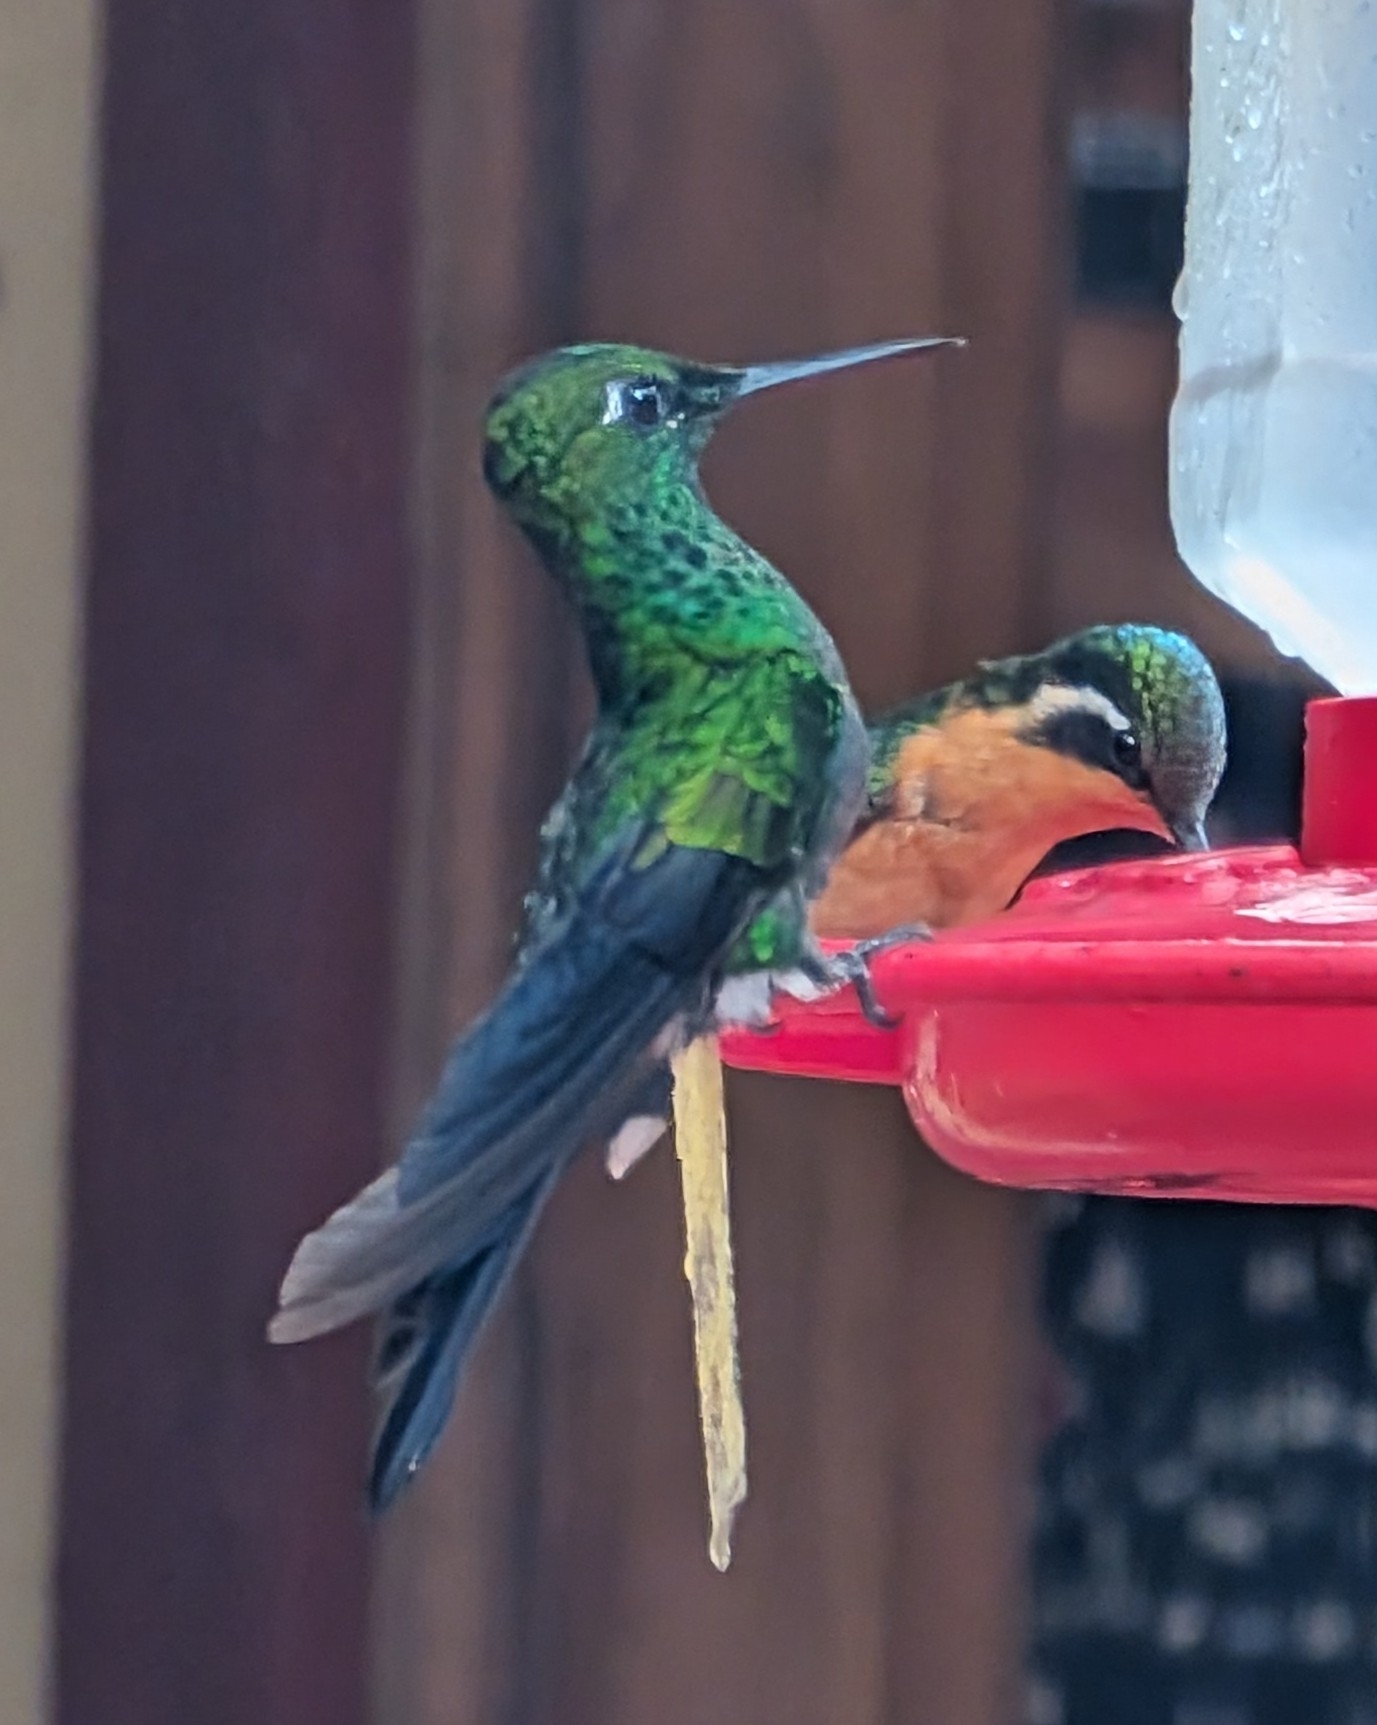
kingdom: Animalia
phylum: Chordata
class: Aves
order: Apodiformes
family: Trochilidae
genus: Heliodoxa
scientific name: Heliodoxa jacula
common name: Green-crowned brilliant
